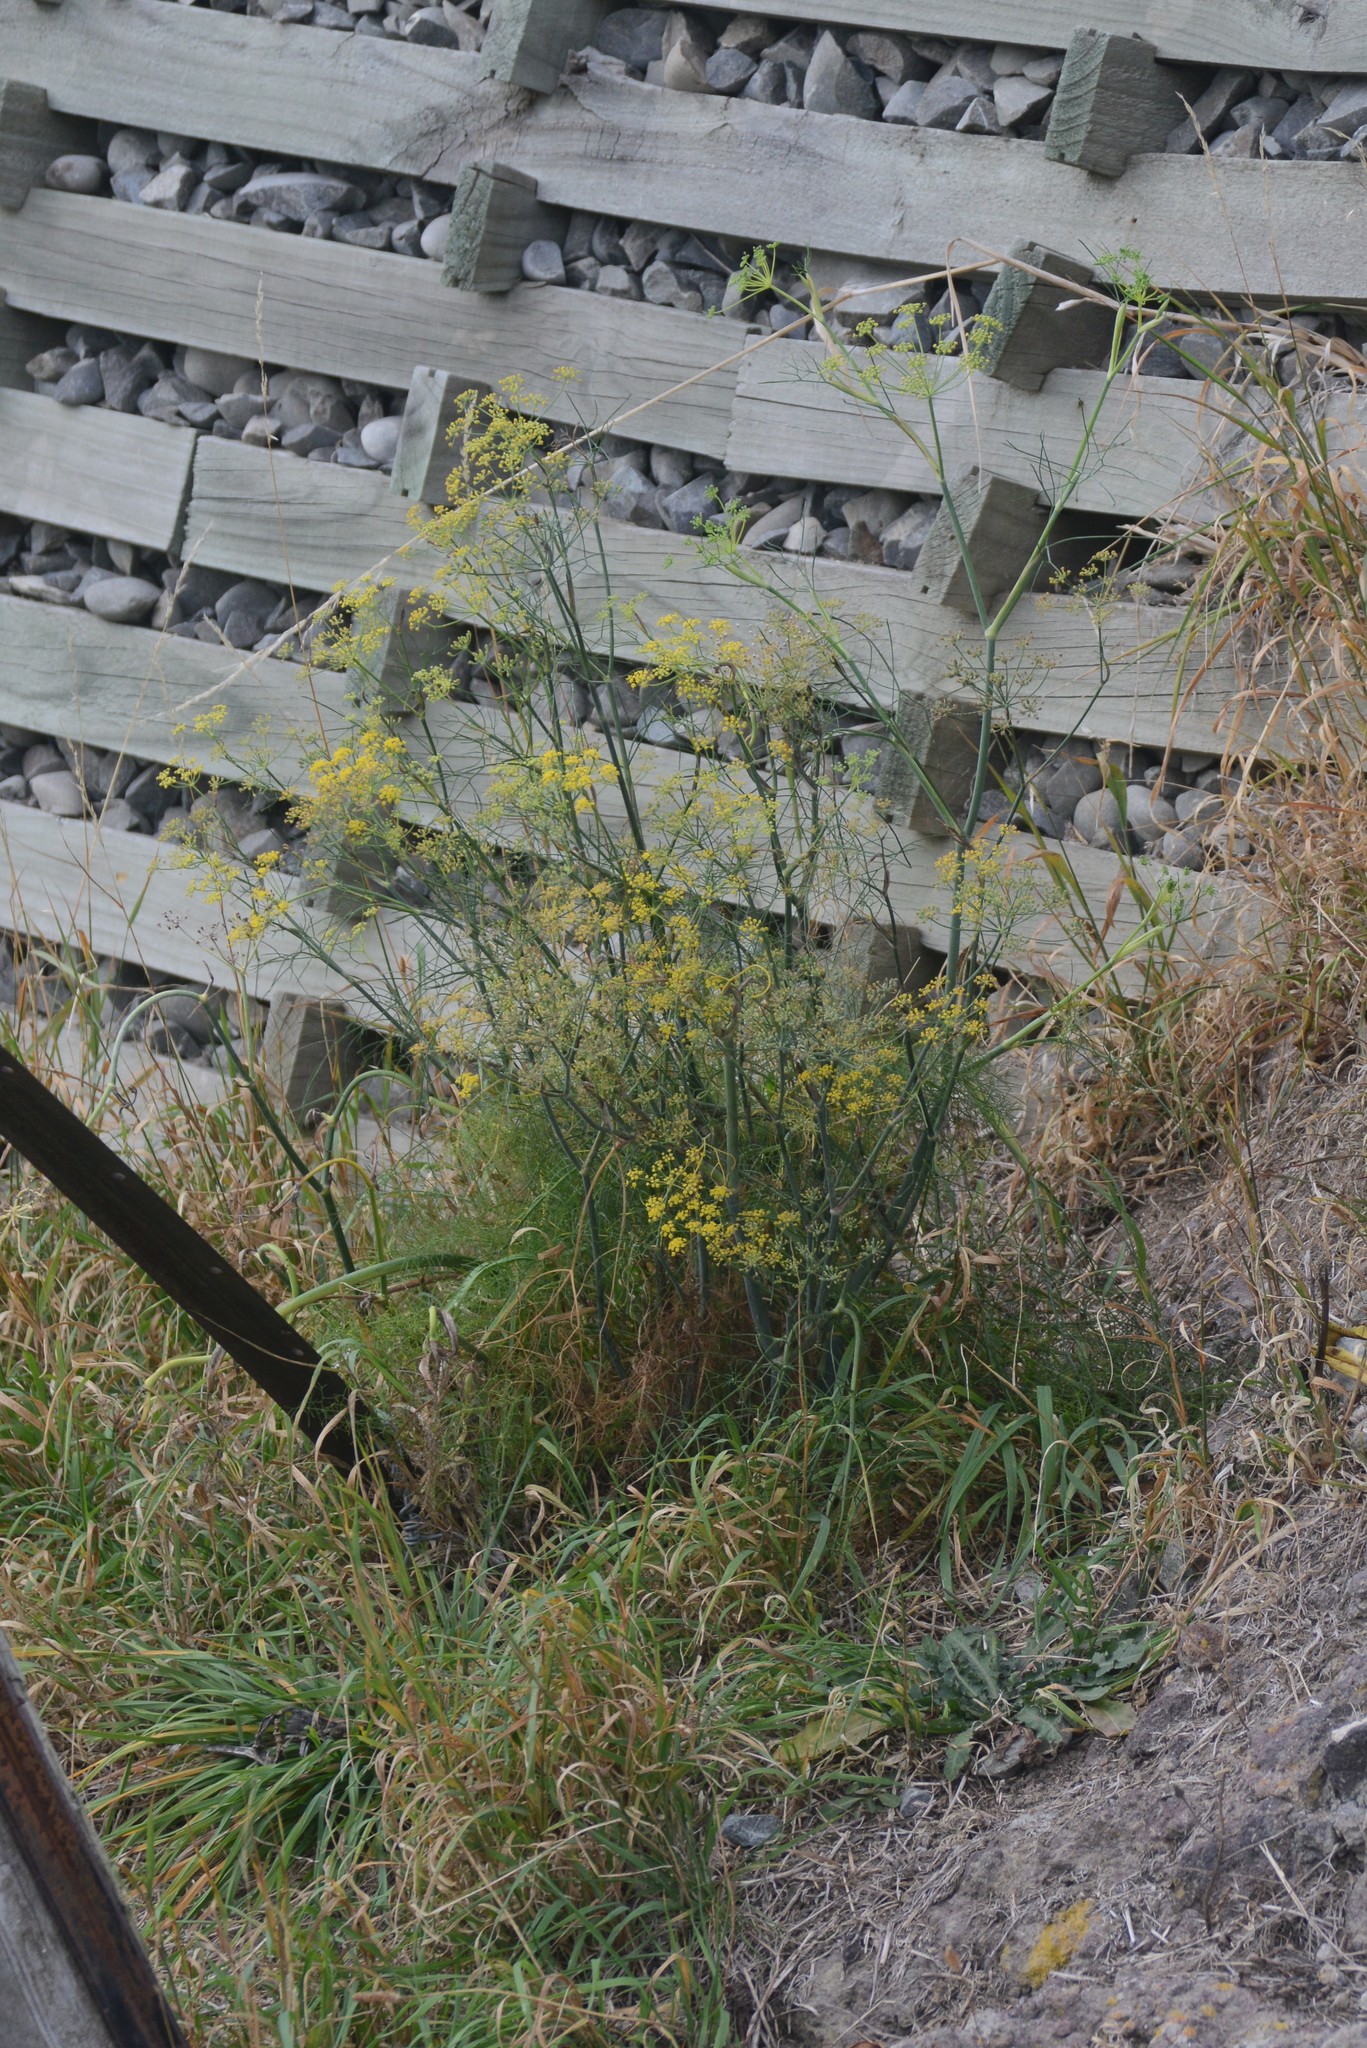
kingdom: Plantae
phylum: Tracheophyta
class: Magnoliopsida
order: Apiales
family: Apiaceae
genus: Foeniculum
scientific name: Foeniculum vulgare
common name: Fennel
